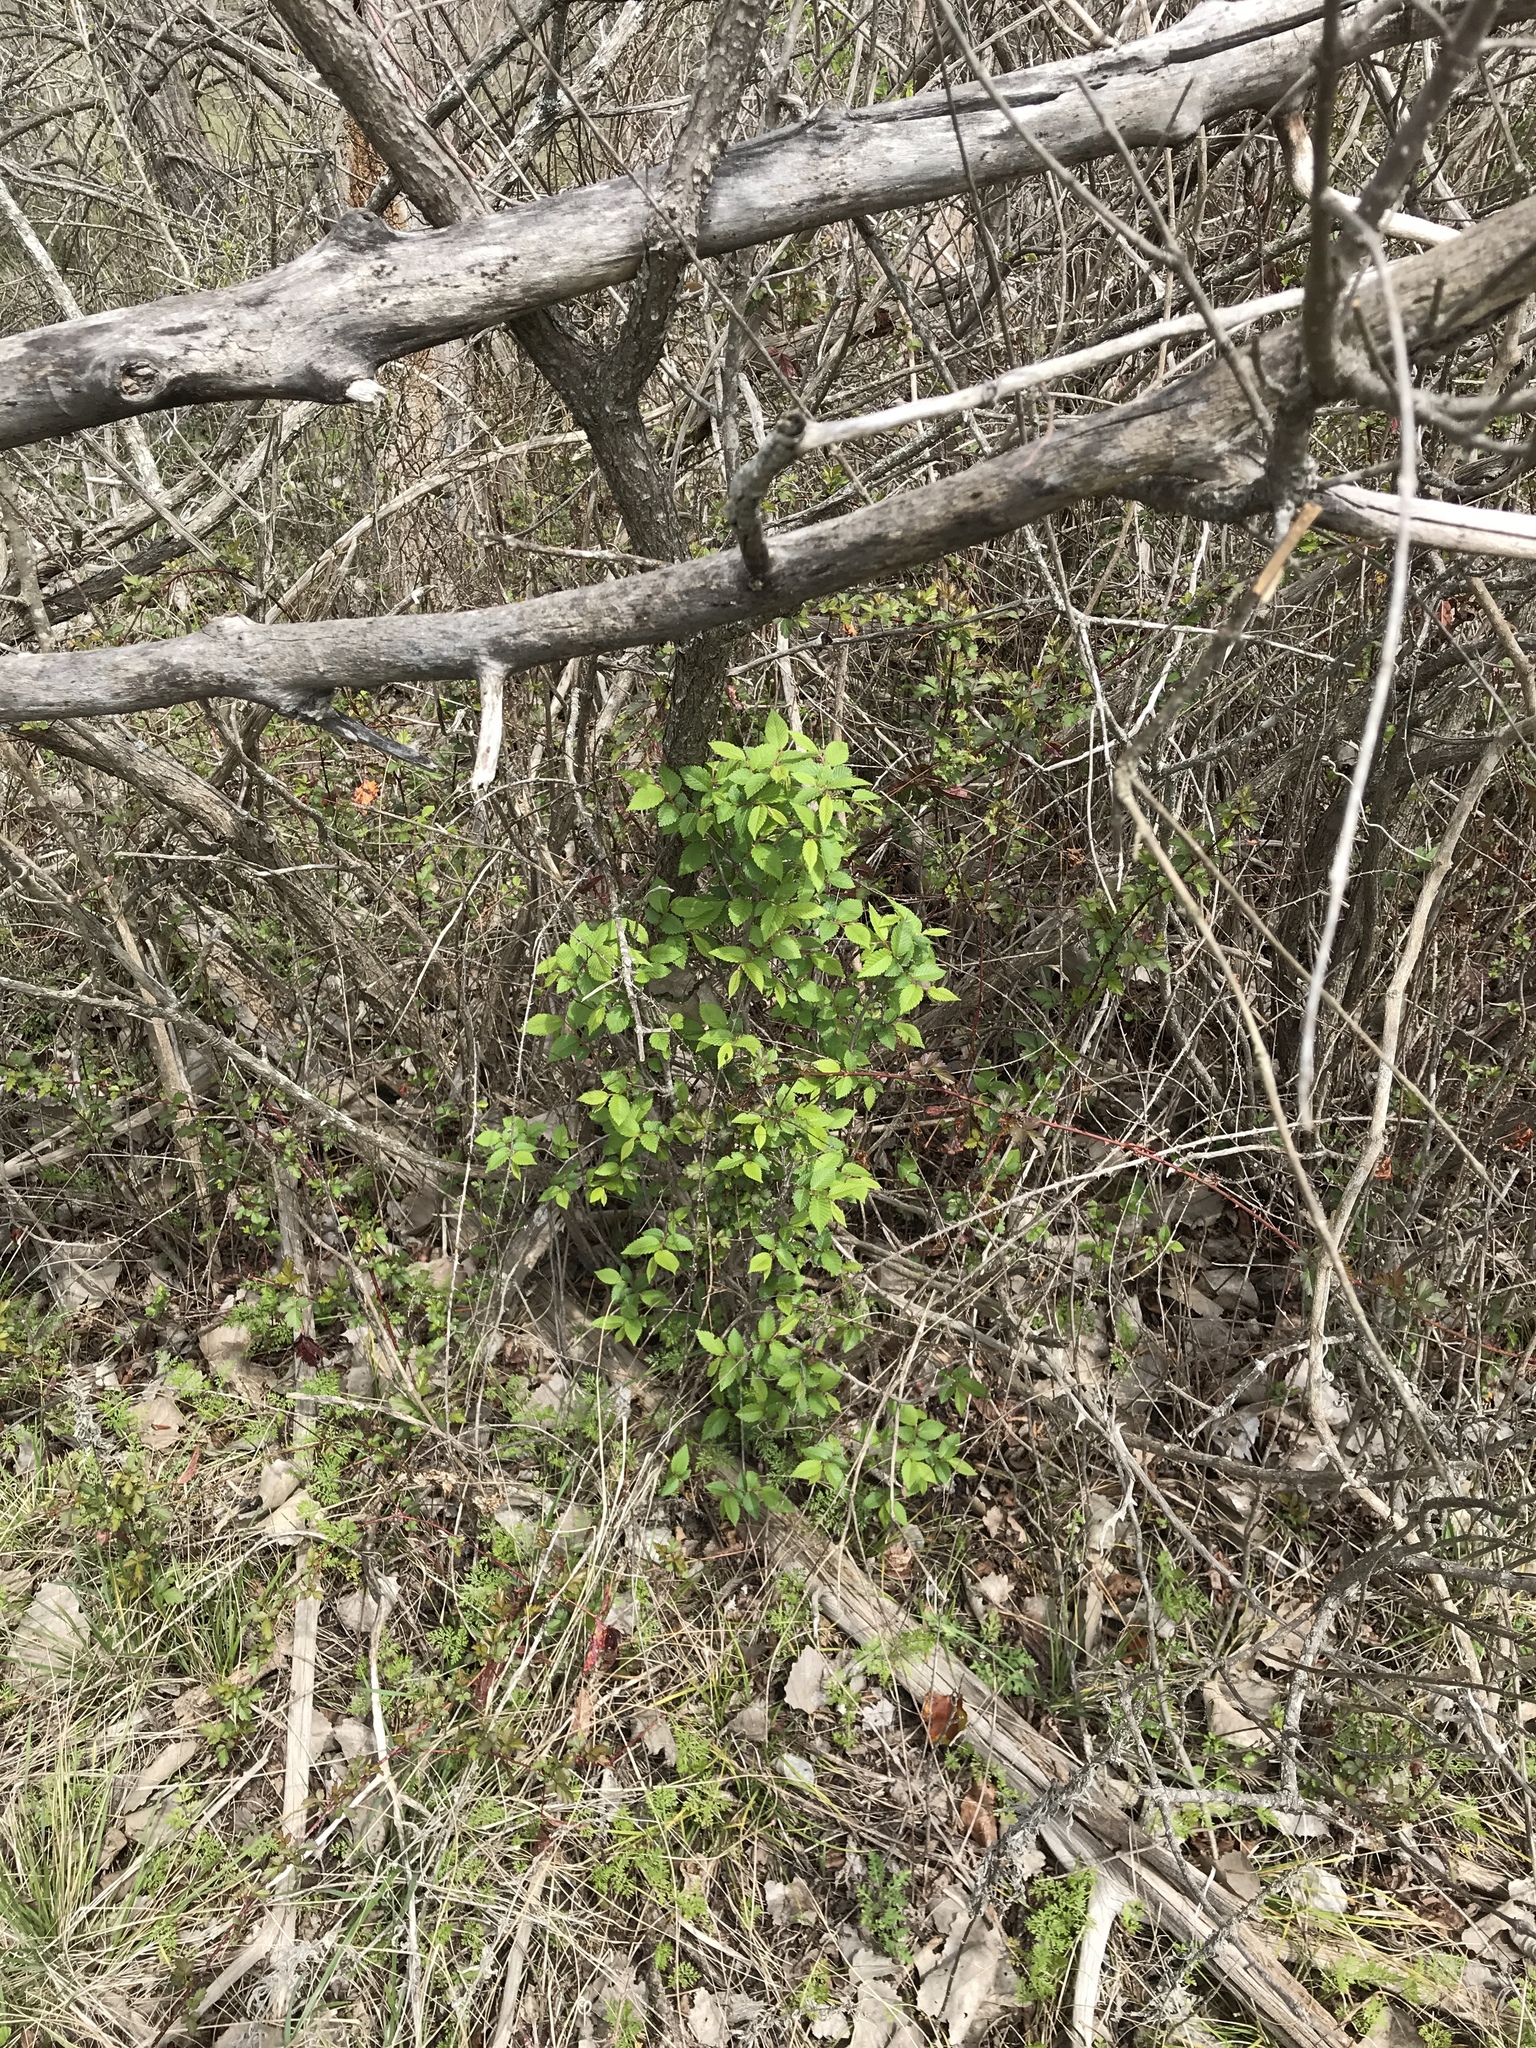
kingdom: Plantae
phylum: Tracheophyta
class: Magnoliopsida
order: Rosales
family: Ulmaceae
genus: Ulmus
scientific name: Ulmus americana
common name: American elm
